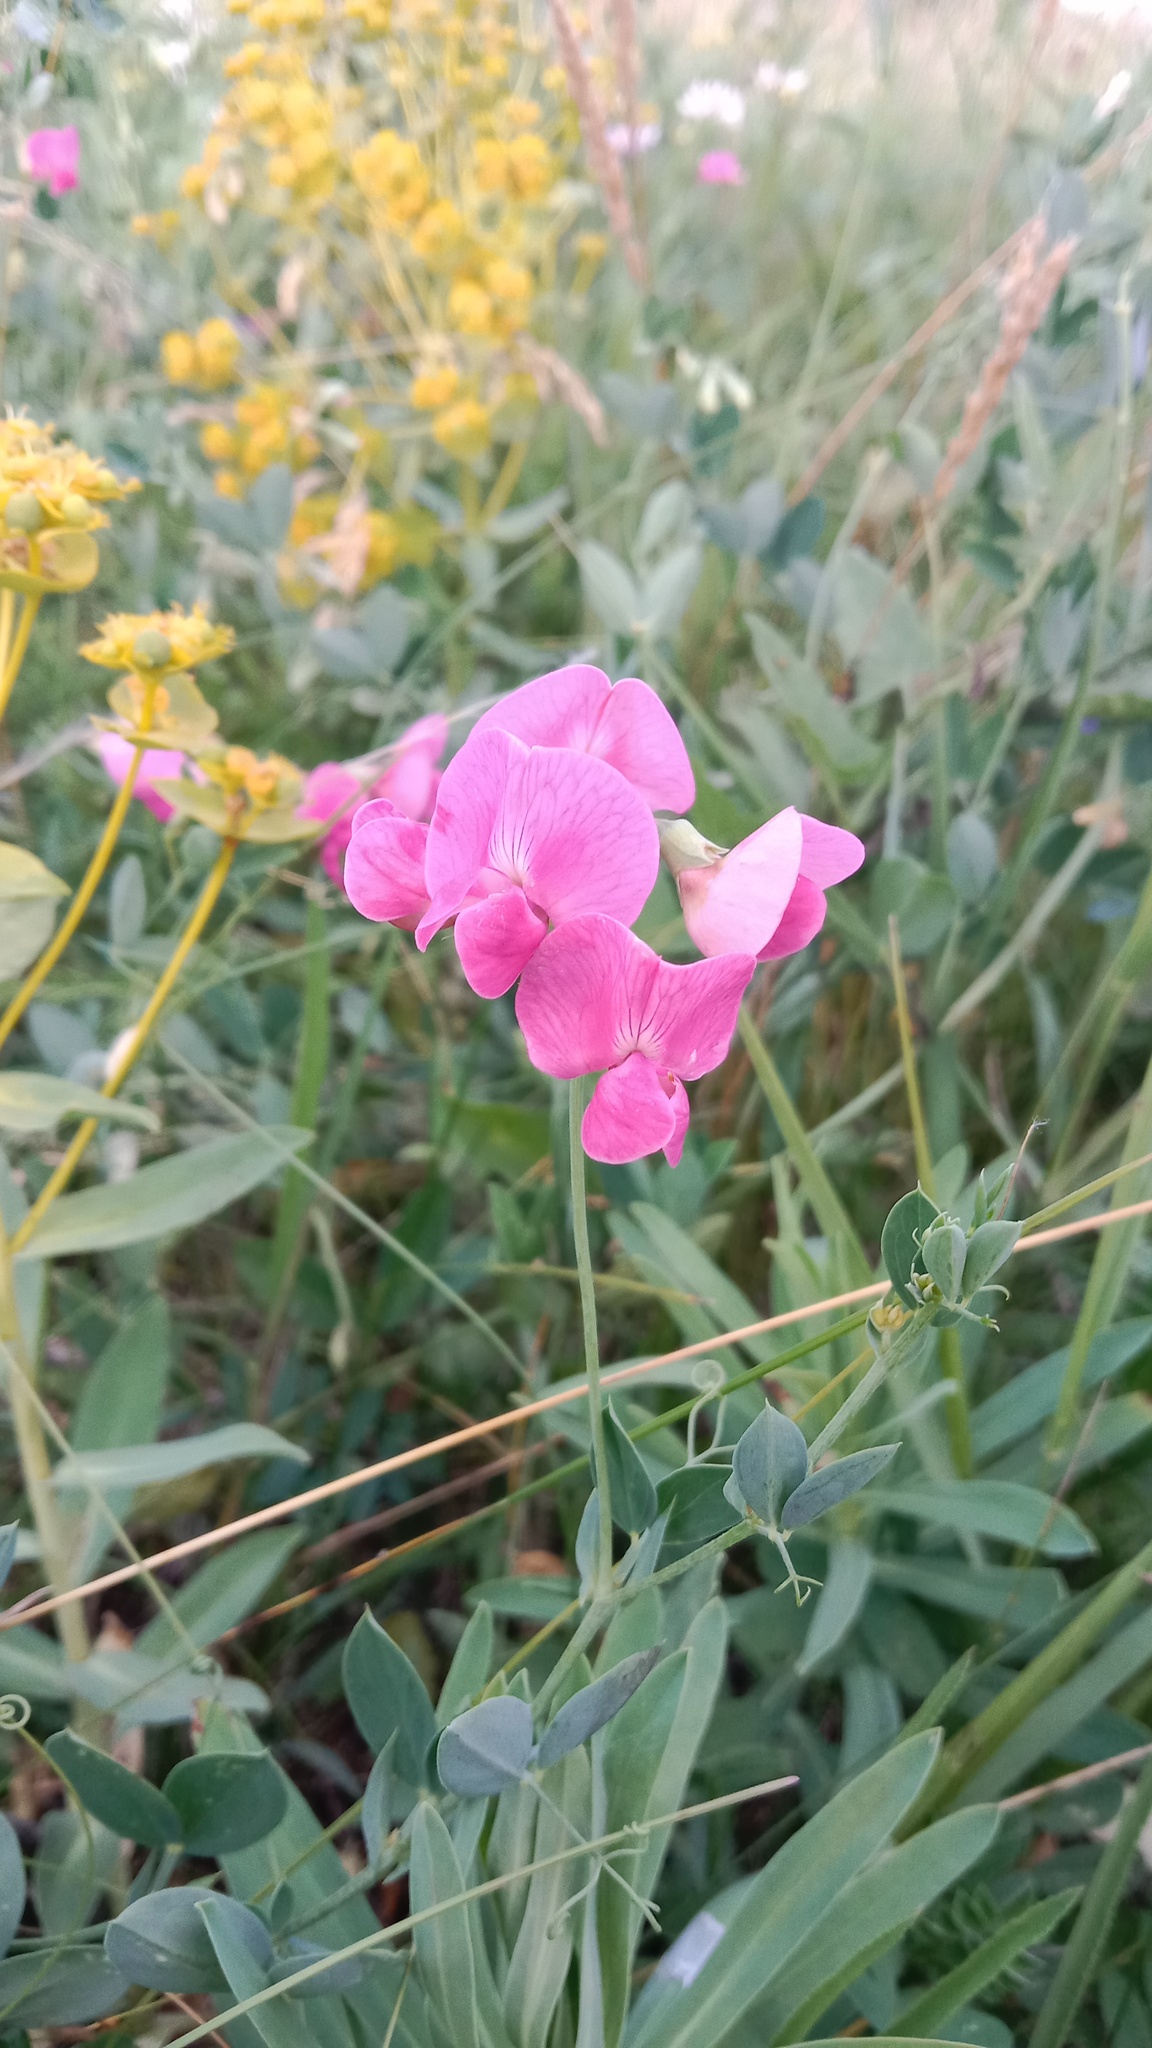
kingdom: Plantae
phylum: Tracheophyta
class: Magnoliopsida
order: Fabales
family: Fabaceae
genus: Lathyrus
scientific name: Lathyrus tuberosus
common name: Tuberous pea
